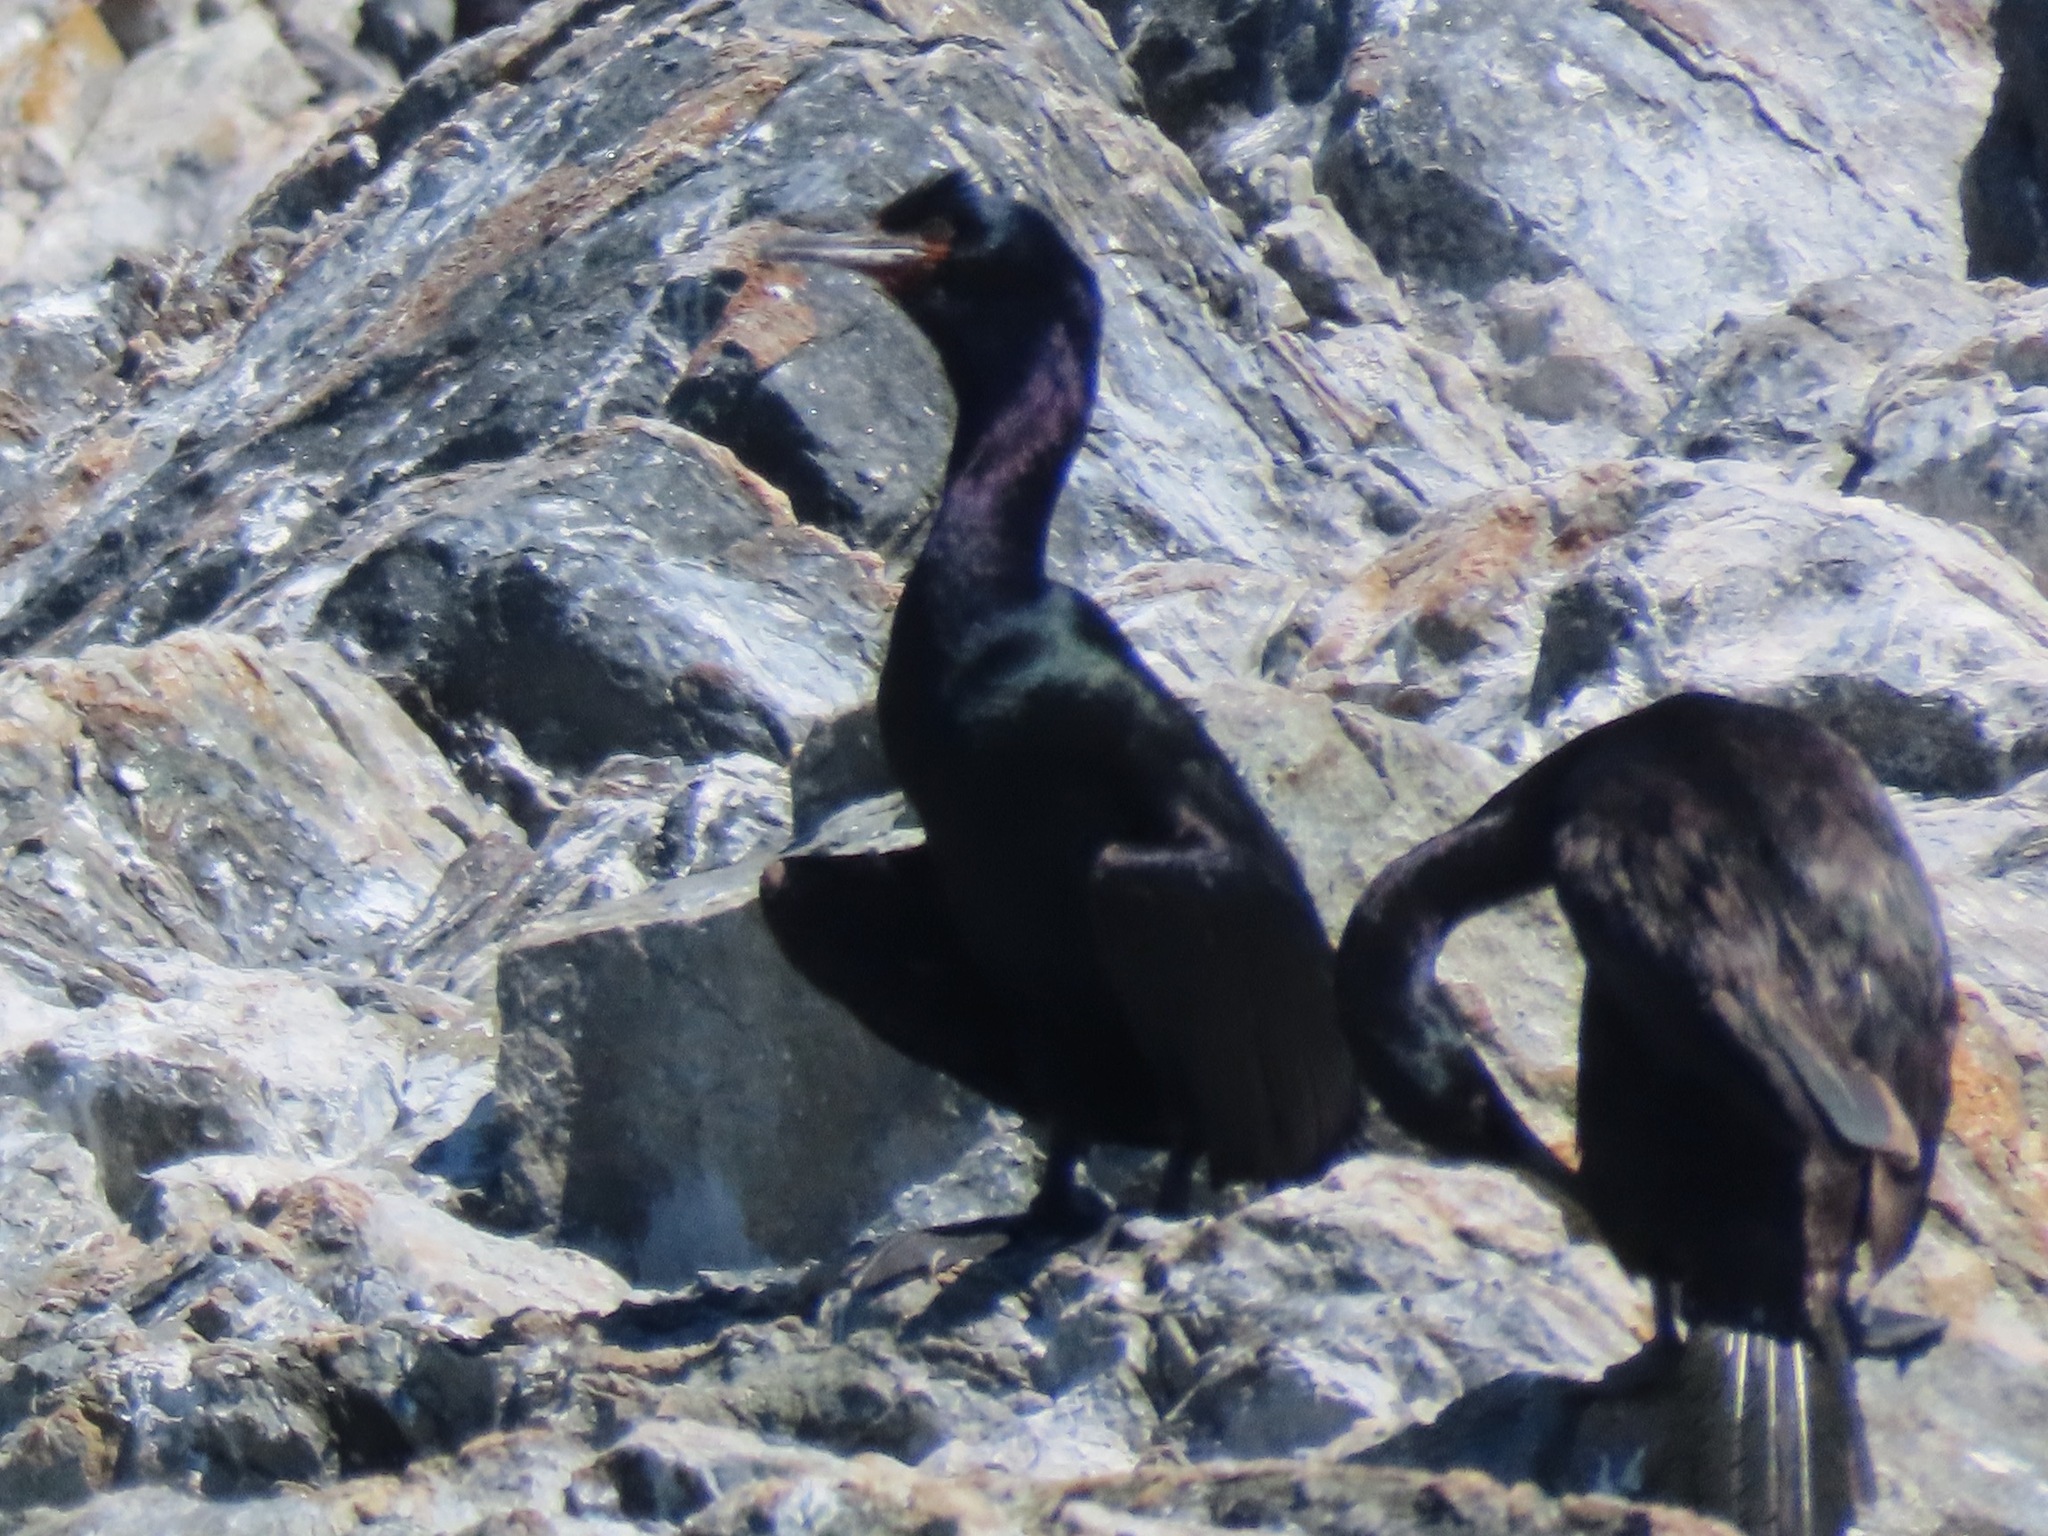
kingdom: Animalia
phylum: Chordata
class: Aves
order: Suliformes
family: Phalacrocoracidae
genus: Phalacrocorax
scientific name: Phalacrocorax pelagicus
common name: Pelagic cormorant
